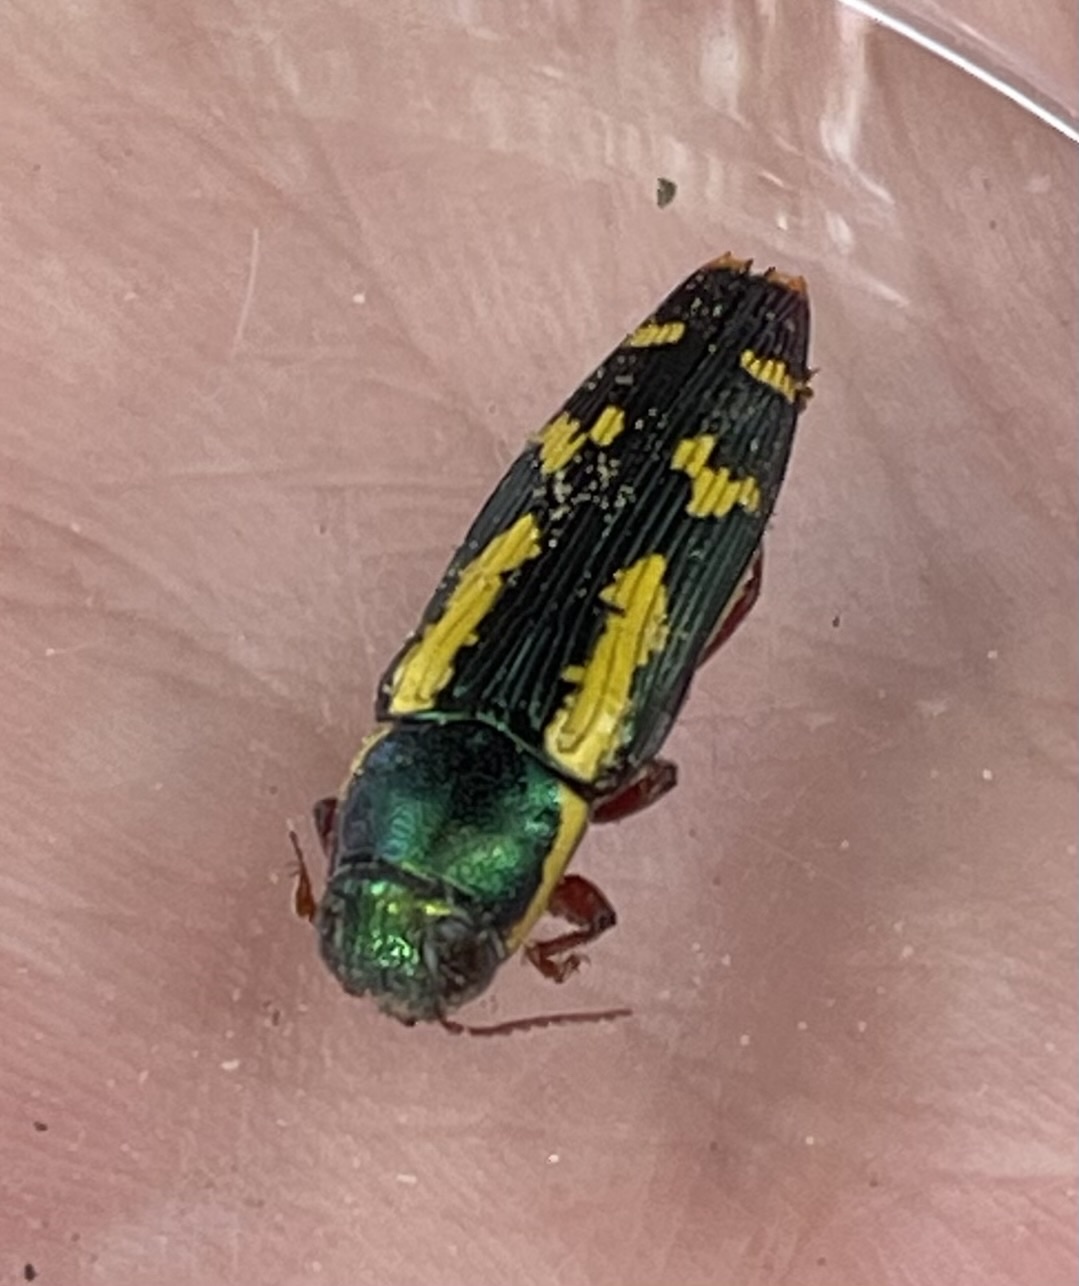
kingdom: Animalia
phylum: Arthropoda
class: Insecta
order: Coleoptera
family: Buprestidae
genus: Buprestis
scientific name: Buprestis rufipes
